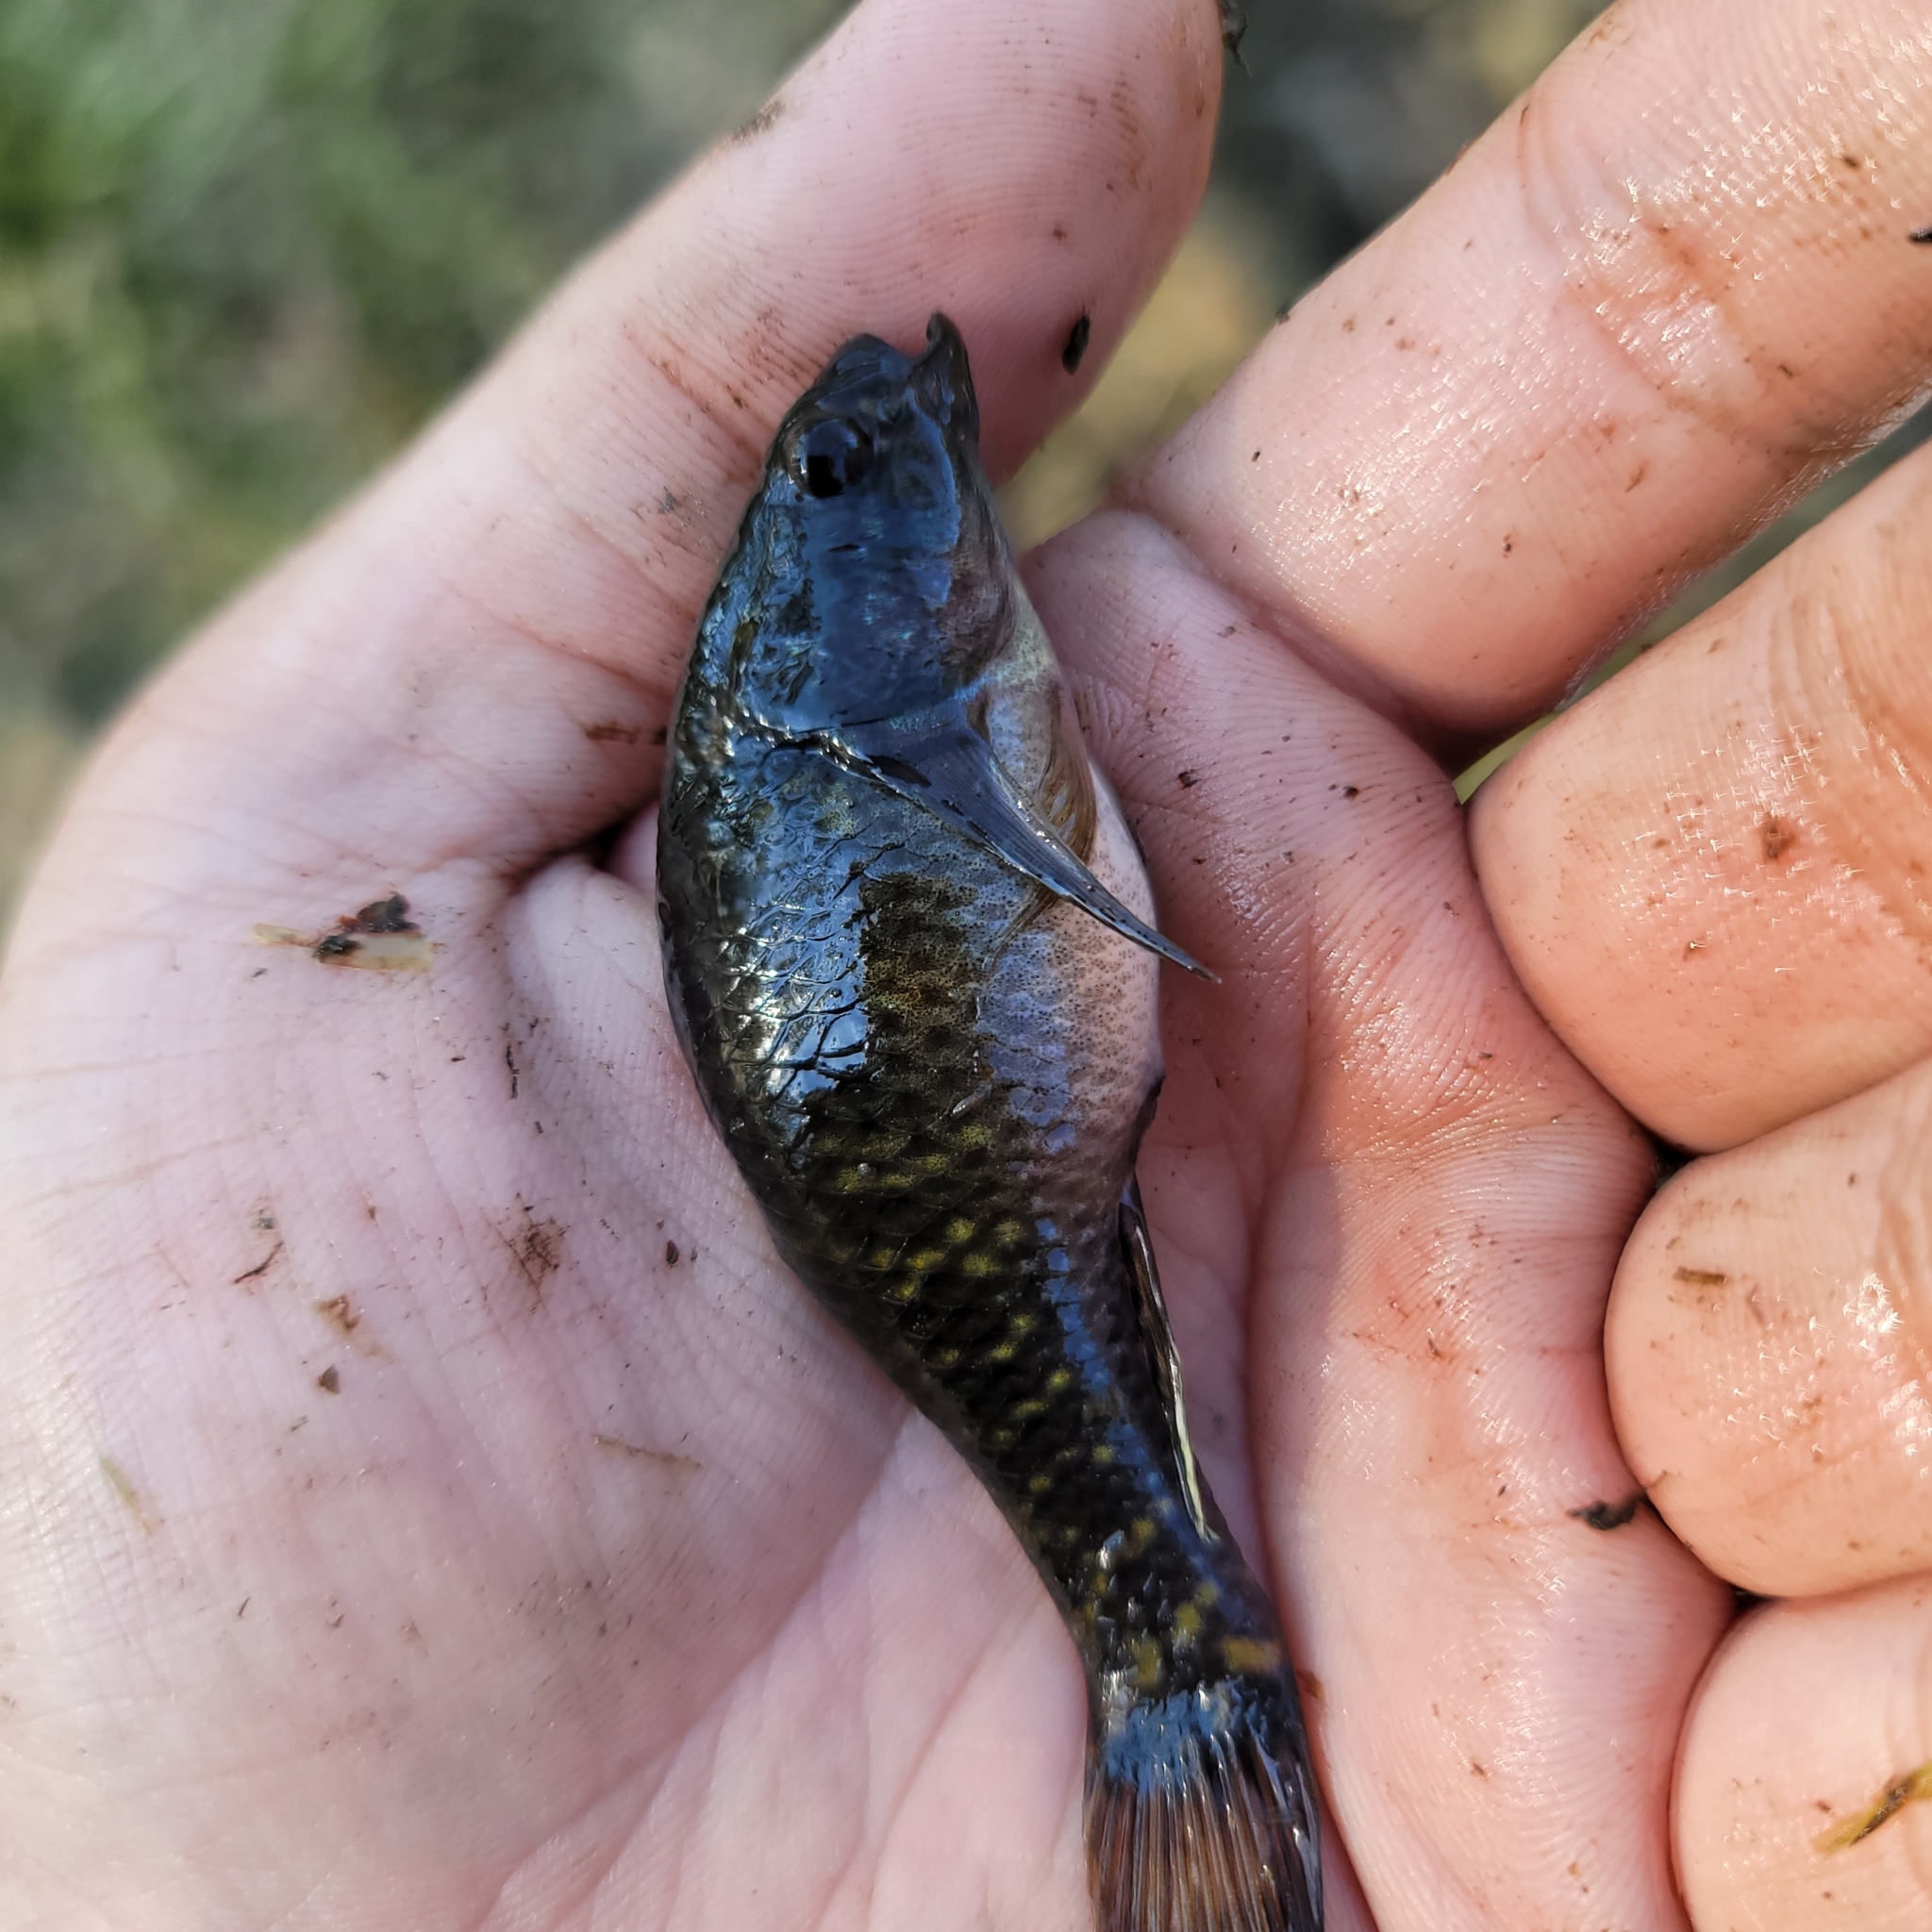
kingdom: Animalia
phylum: Chordata
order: Perciformes
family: Eleotridae
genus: Dormitator
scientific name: Dormitator maculatus
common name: Fat sleeper
